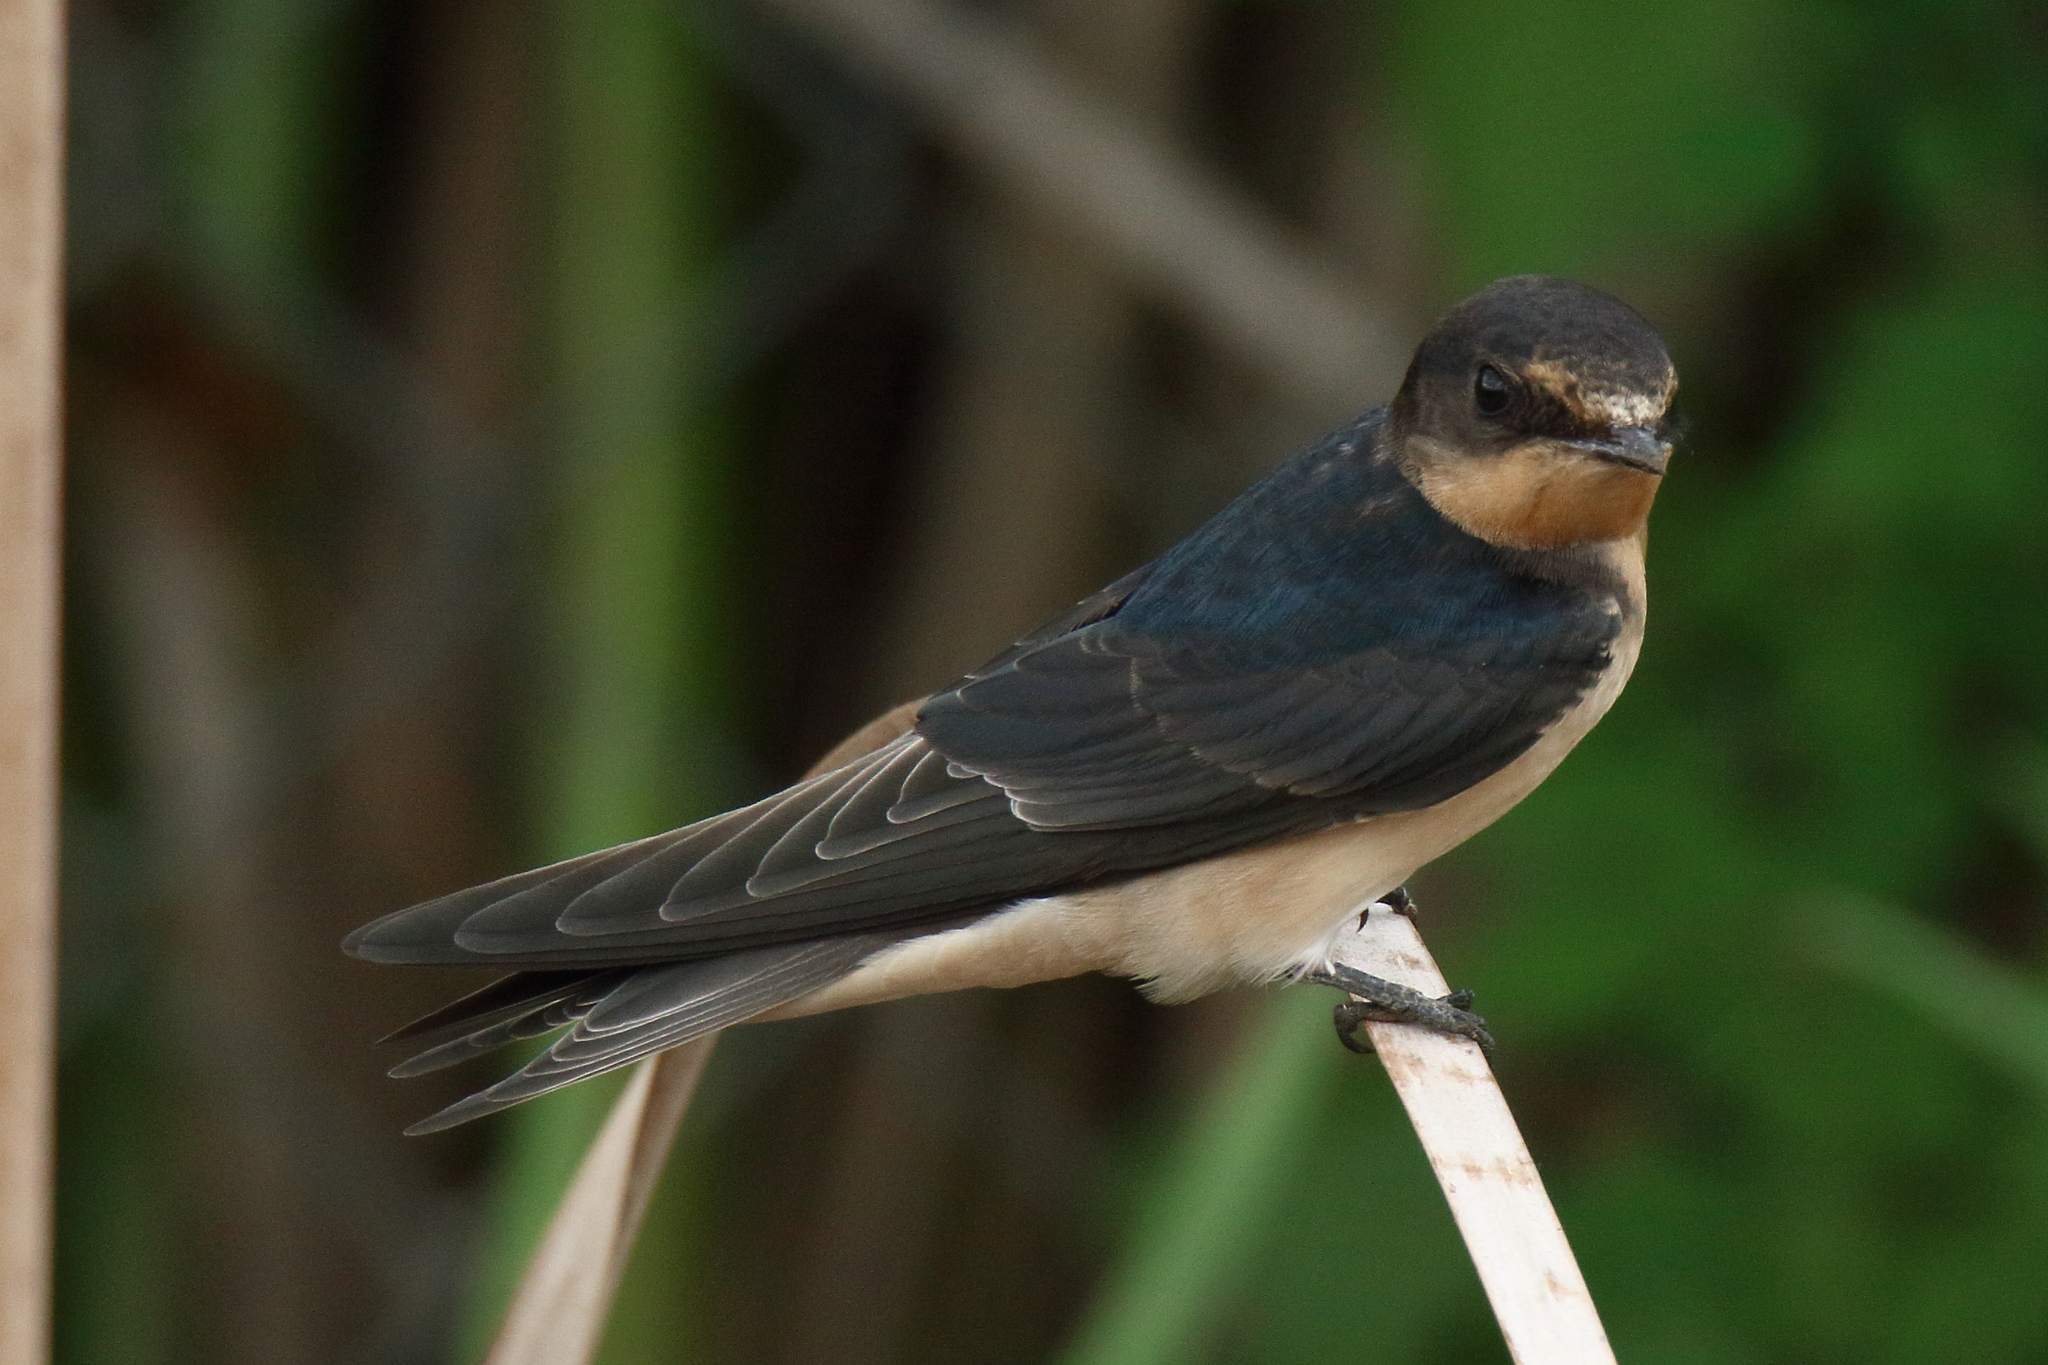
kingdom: Animalia
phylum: Chordata
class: Aves
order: Passeriformes
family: Hirundinidae
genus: Hirundo
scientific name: Hirundo rustica
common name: Barn swallow
